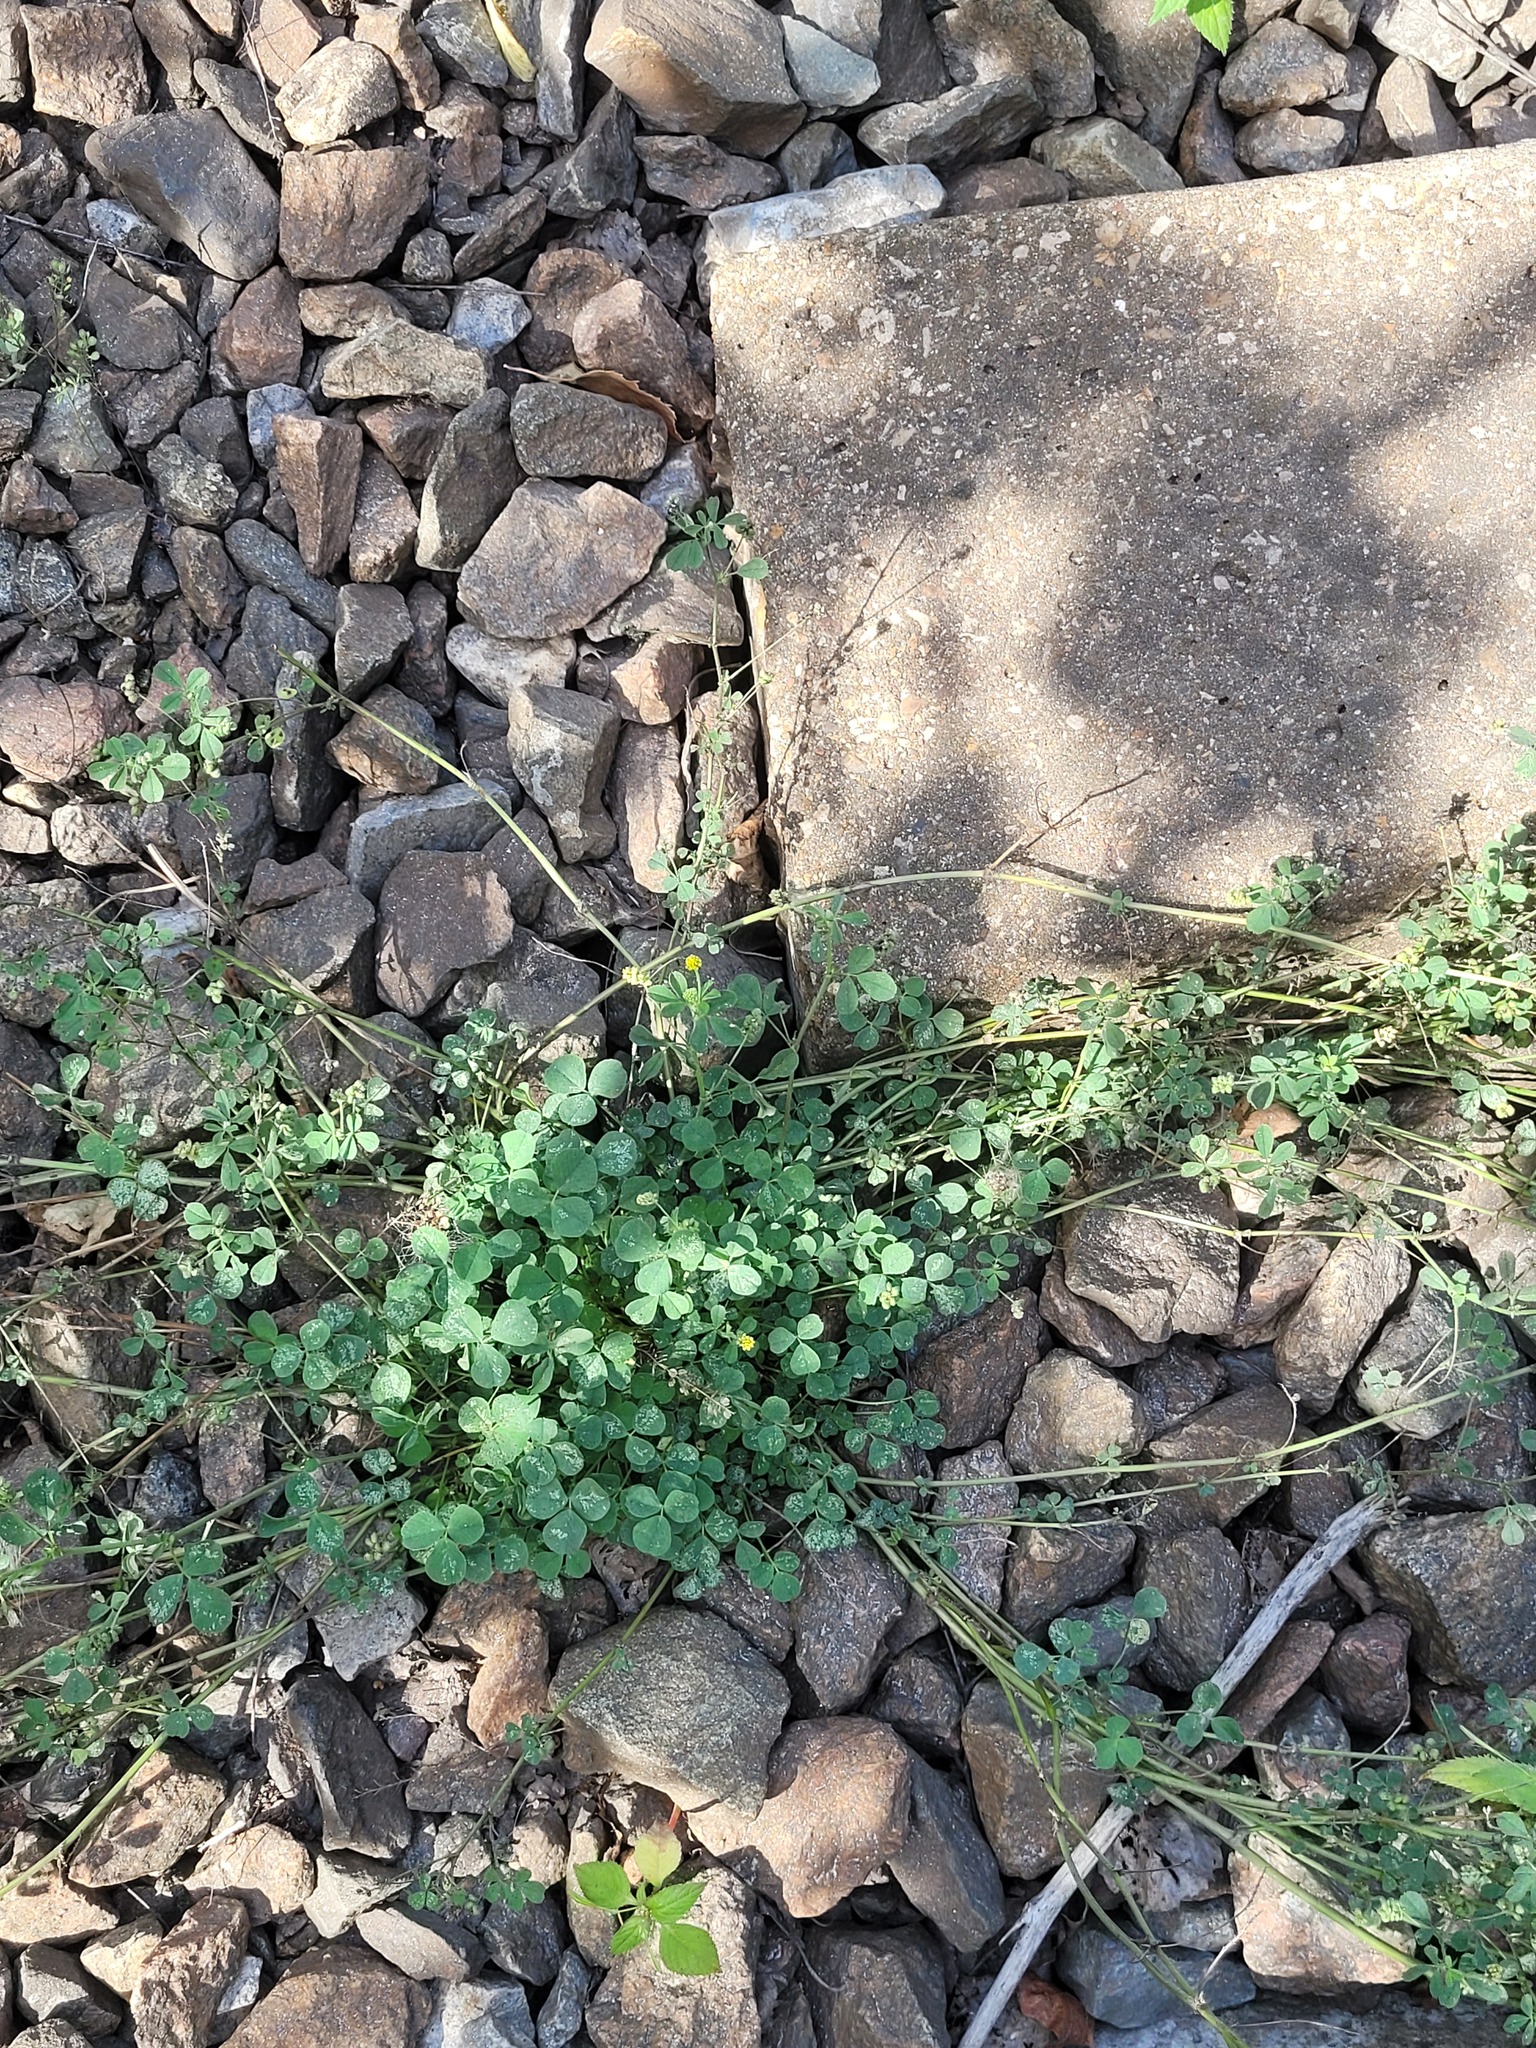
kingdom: Plantae
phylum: Tracheophyta
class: Magnoliopsida
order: Fabales
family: Fabaceae
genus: Medicago
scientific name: Medicago lupulina
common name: Black medick
